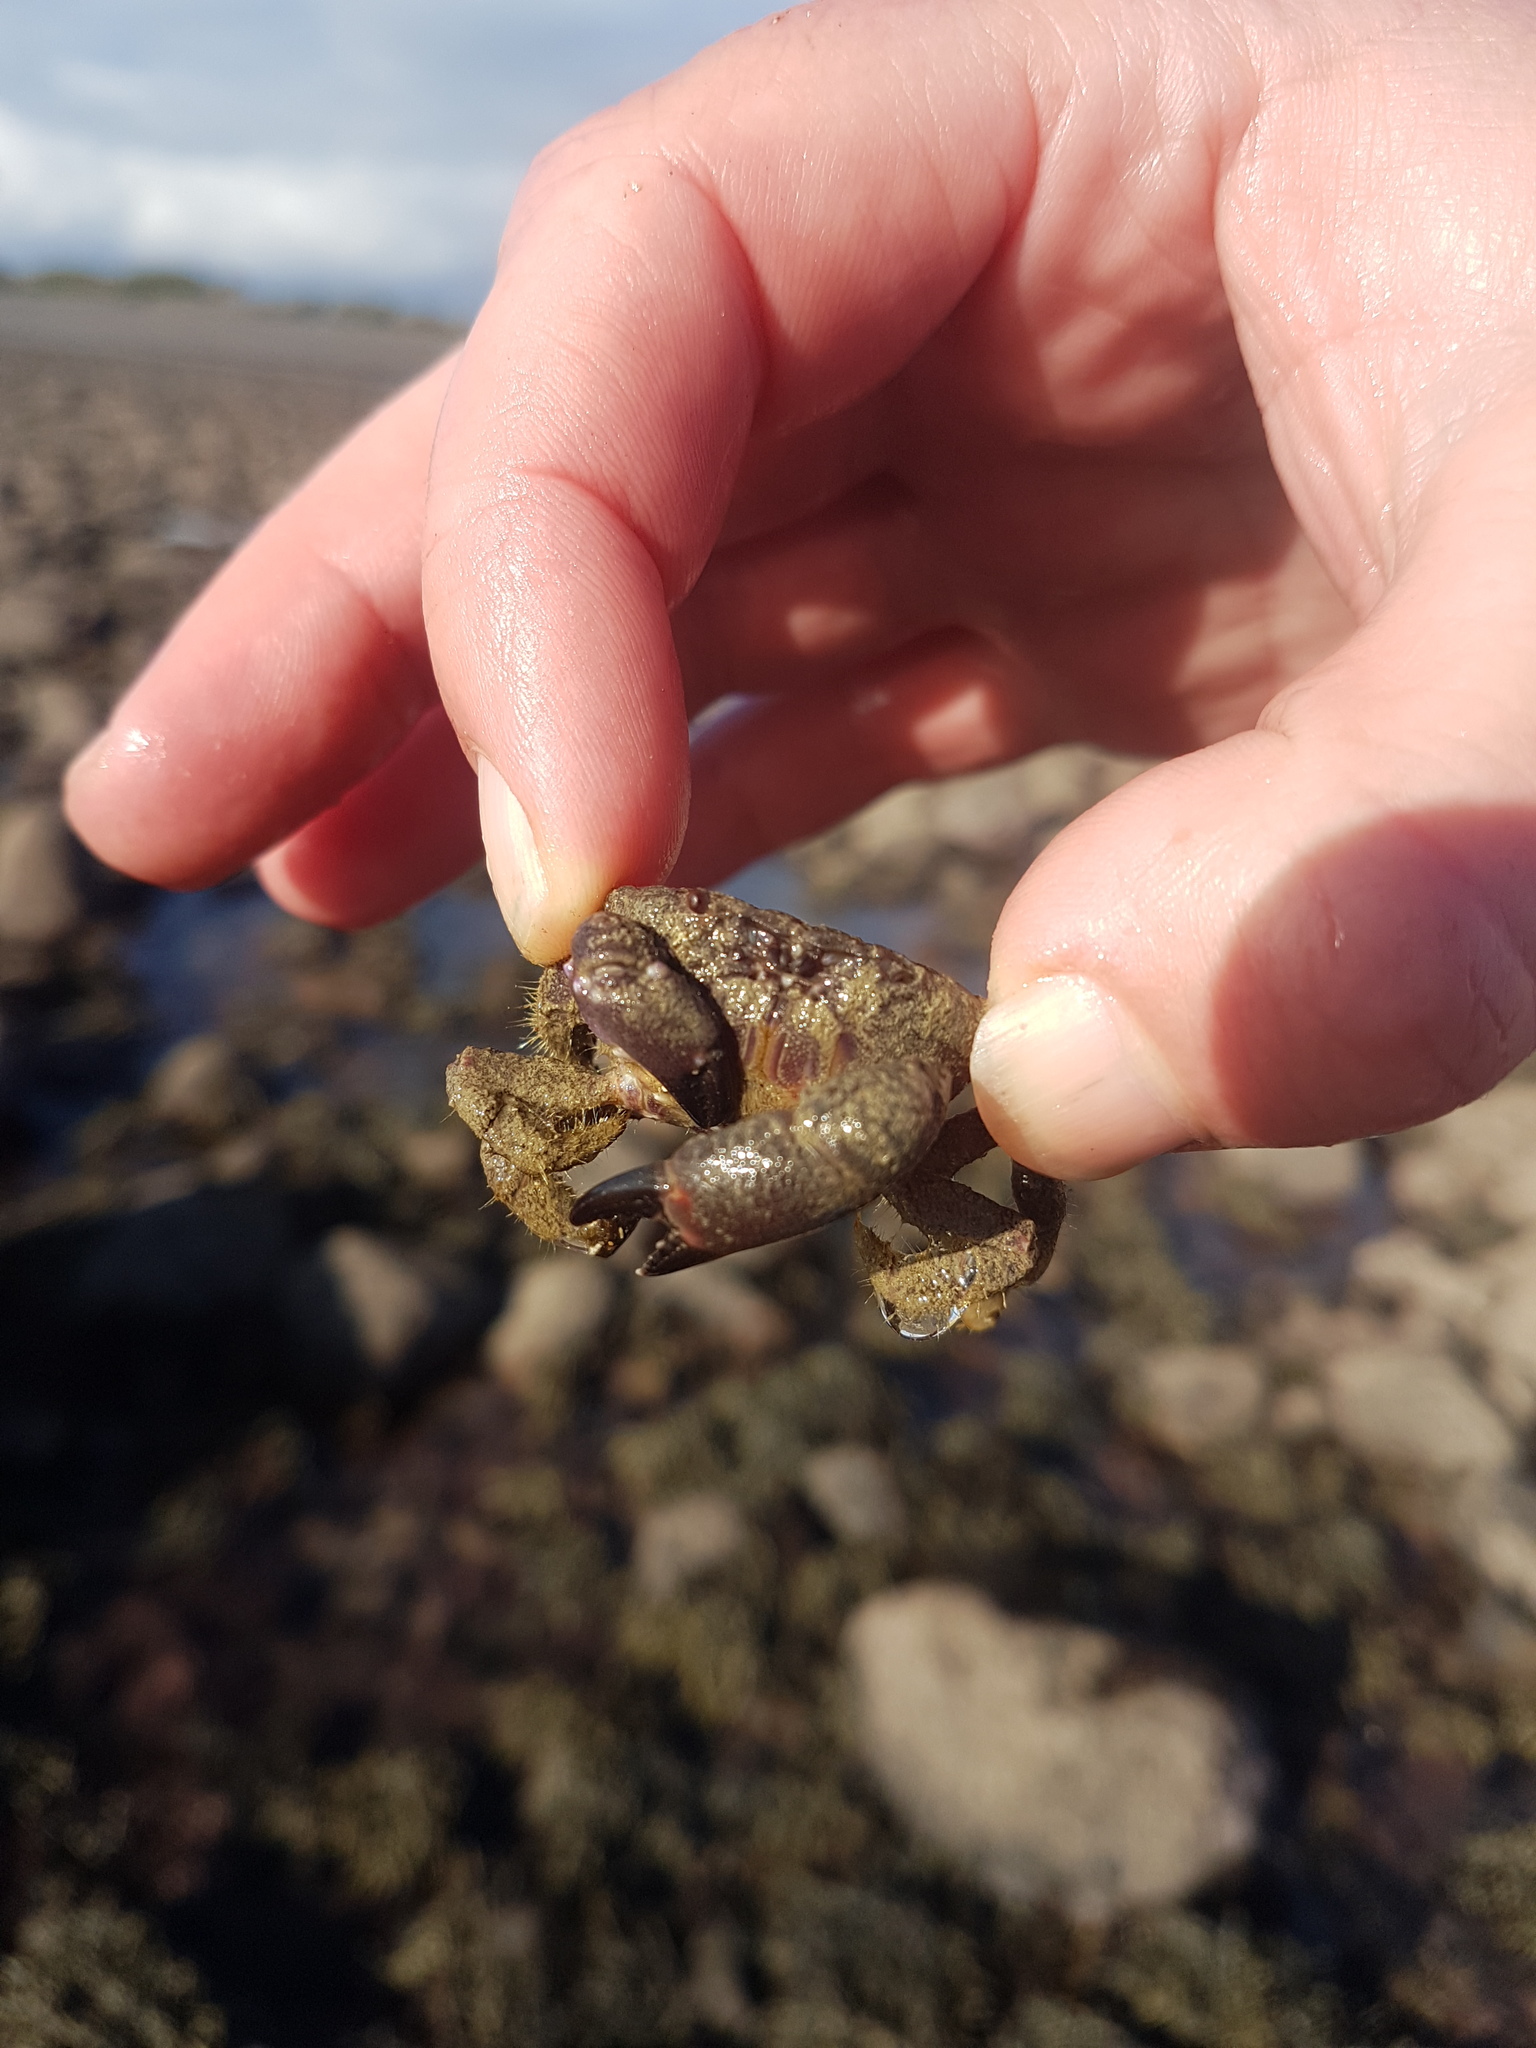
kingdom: Animalia
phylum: Arthropoda
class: Malacostraca
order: Decapoda
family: Oziidae
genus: Ozius
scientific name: Ozius deplanatus
